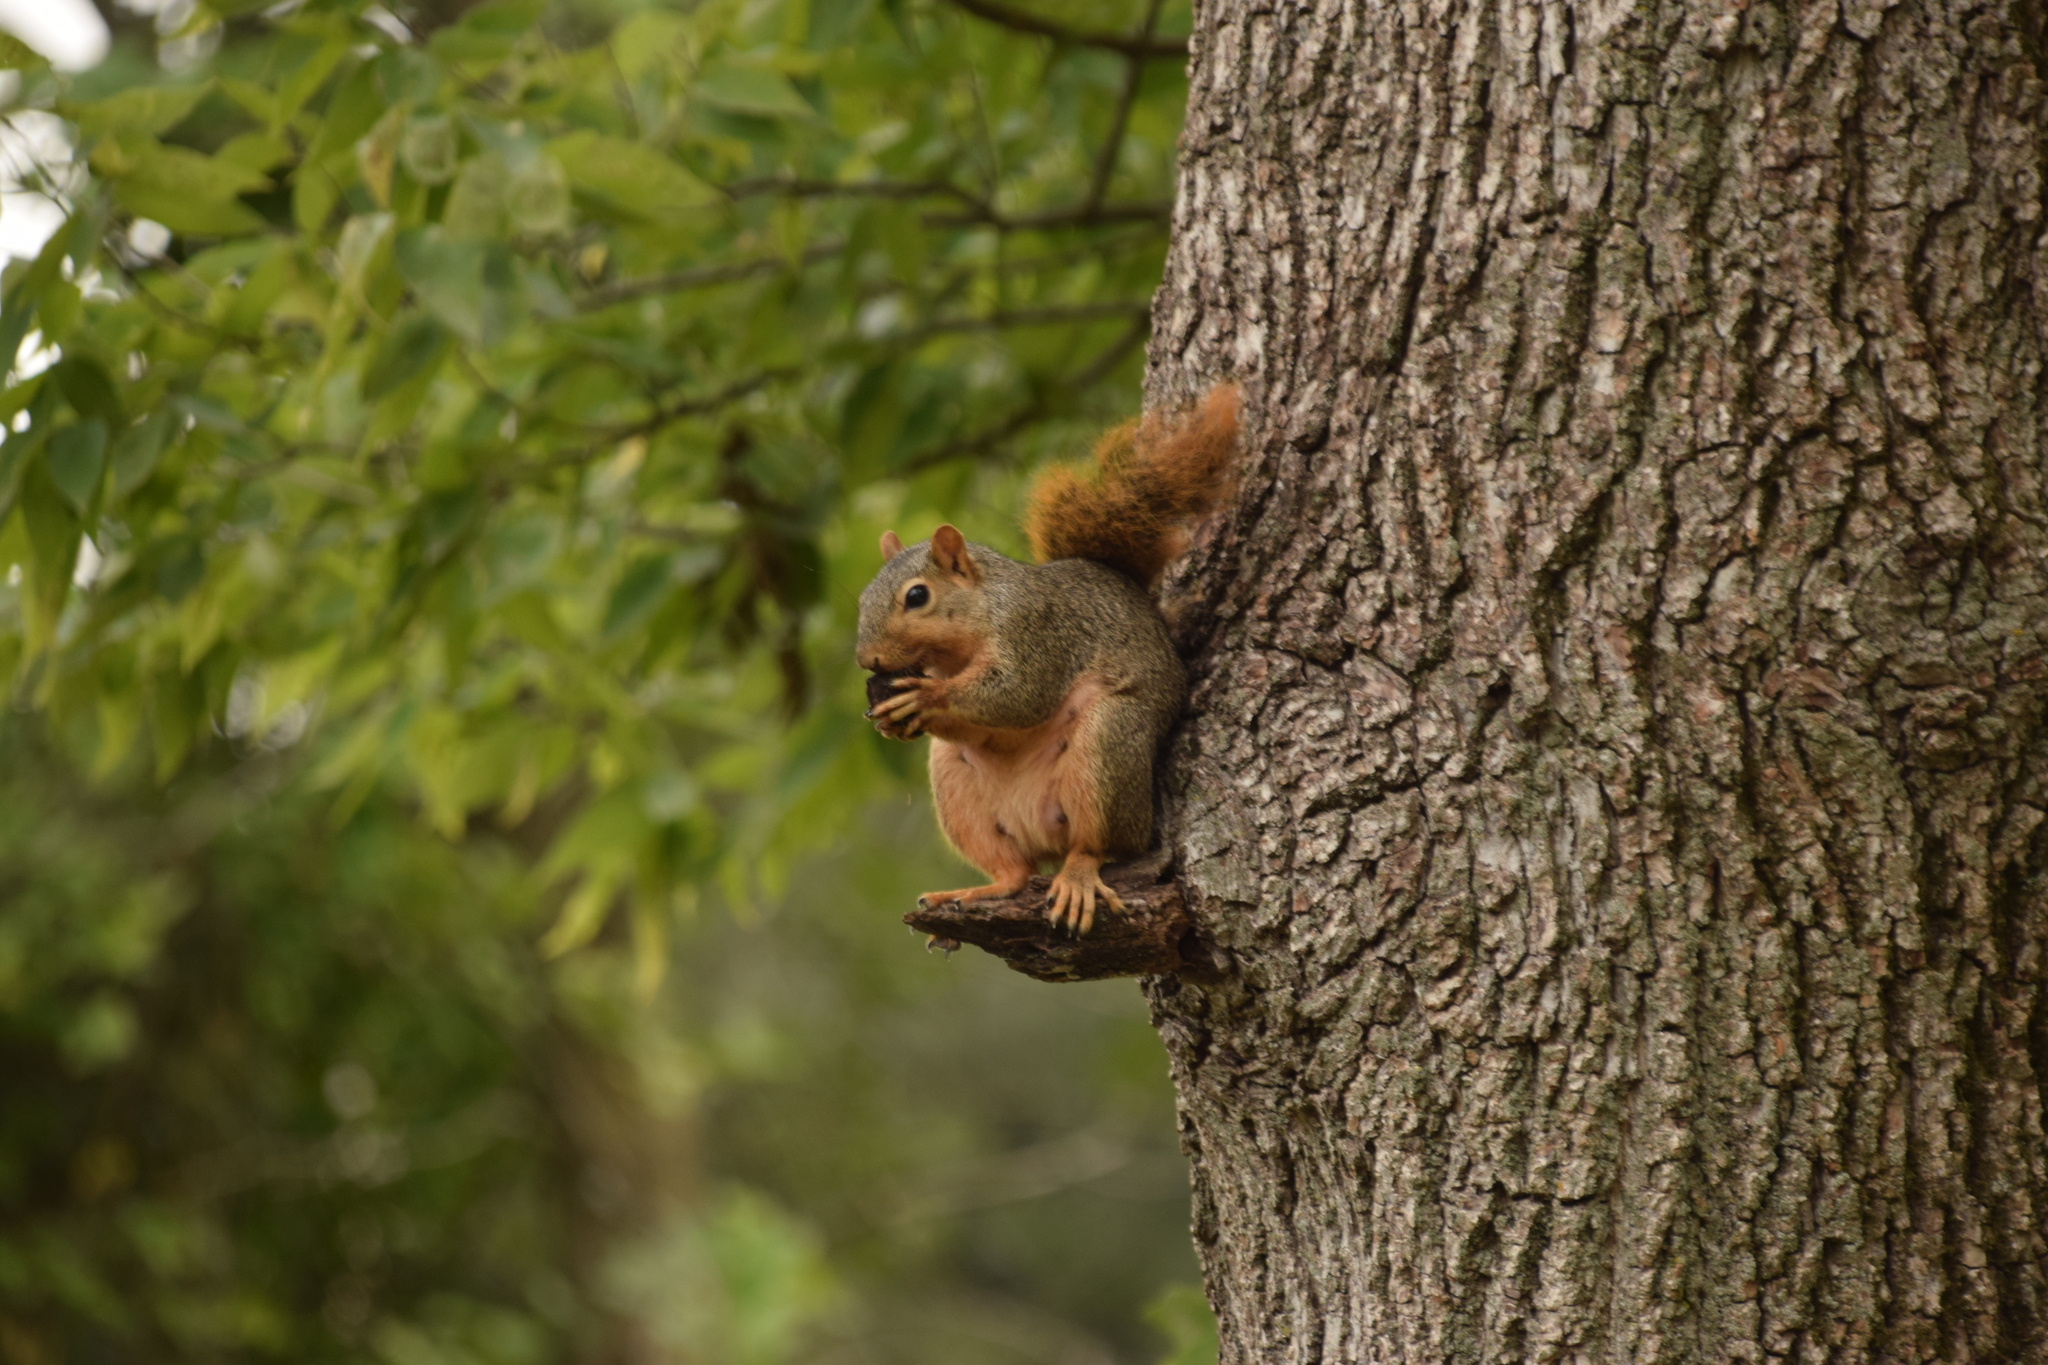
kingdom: Animalia
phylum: Chordata
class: Mammalia
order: Rodentia
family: Sciuridae
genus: Sciurus
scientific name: Sciurus niger
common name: Fox squirrel
